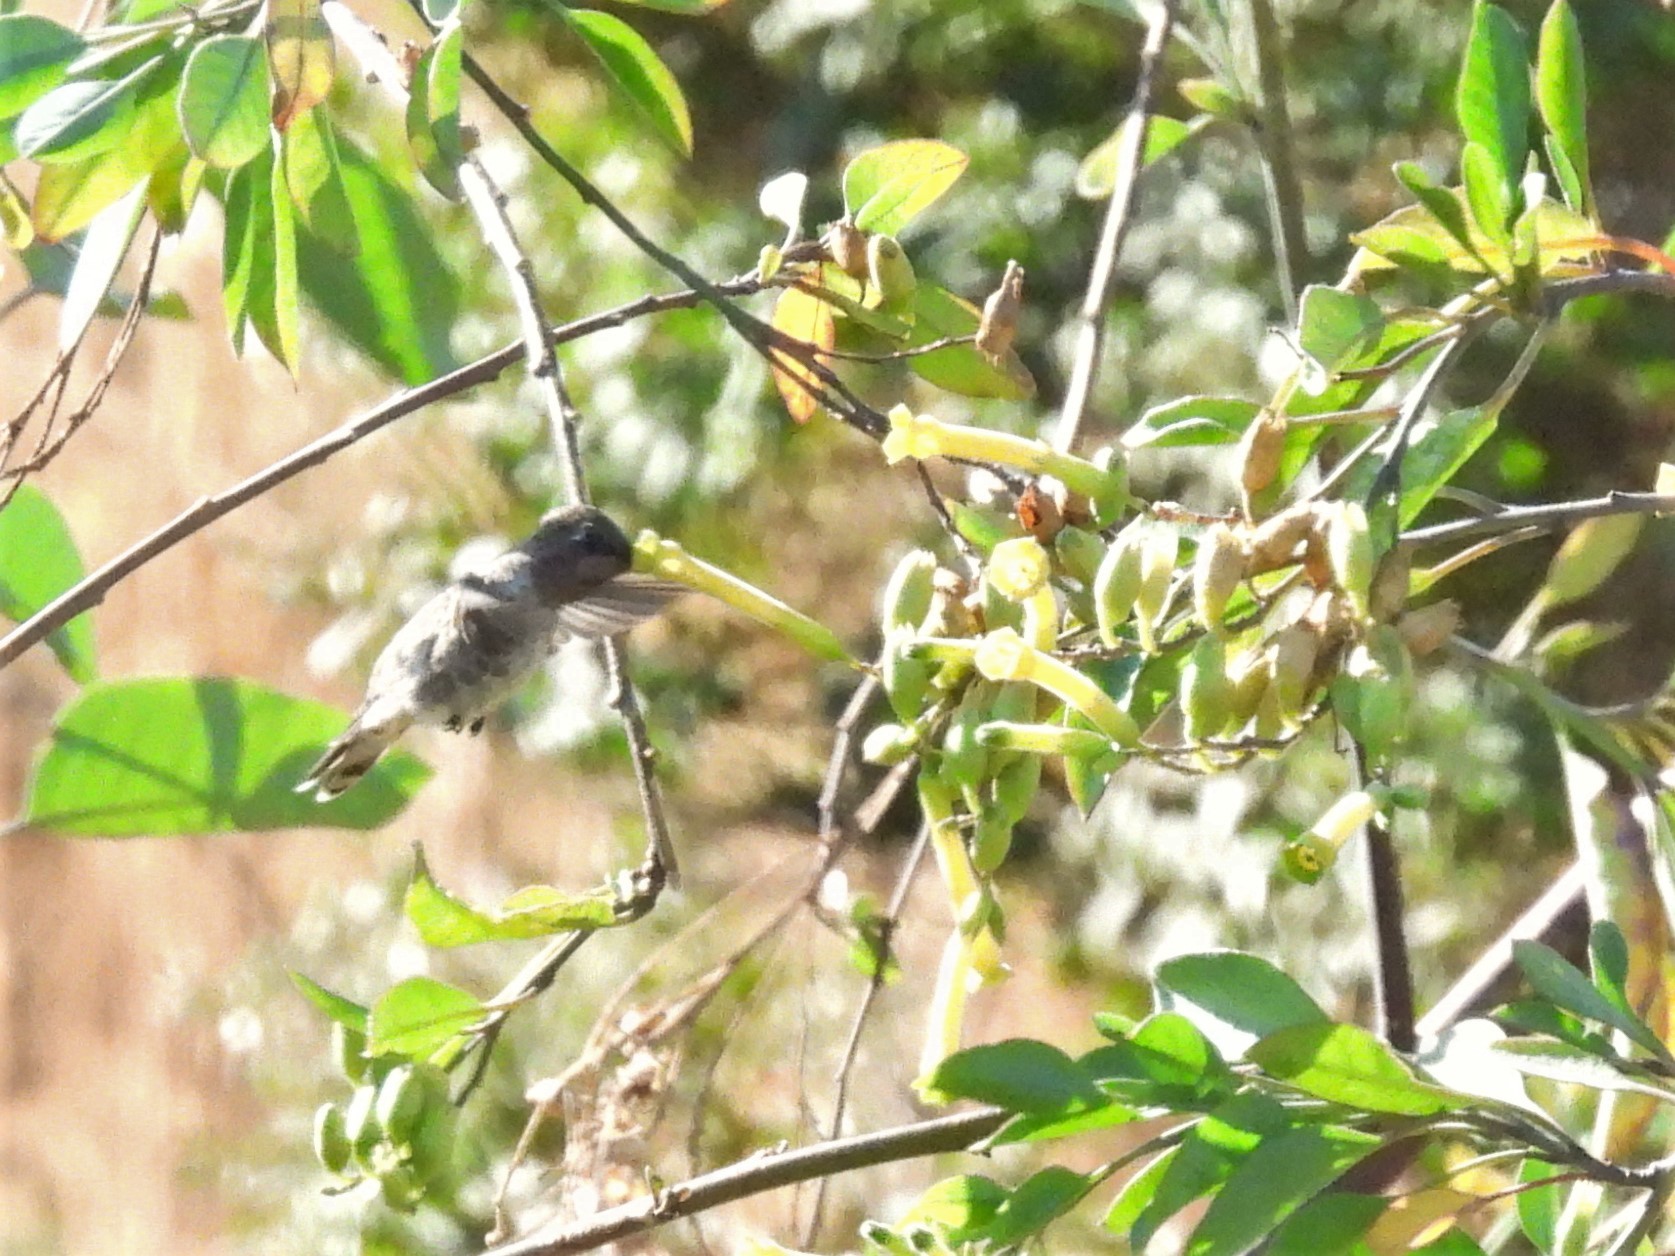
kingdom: Animalia
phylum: Chordata
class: Aves
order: Apodiformes
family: Trochilidae
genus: Calypte
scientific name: Calypte anna
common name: Anna's hummingbird
